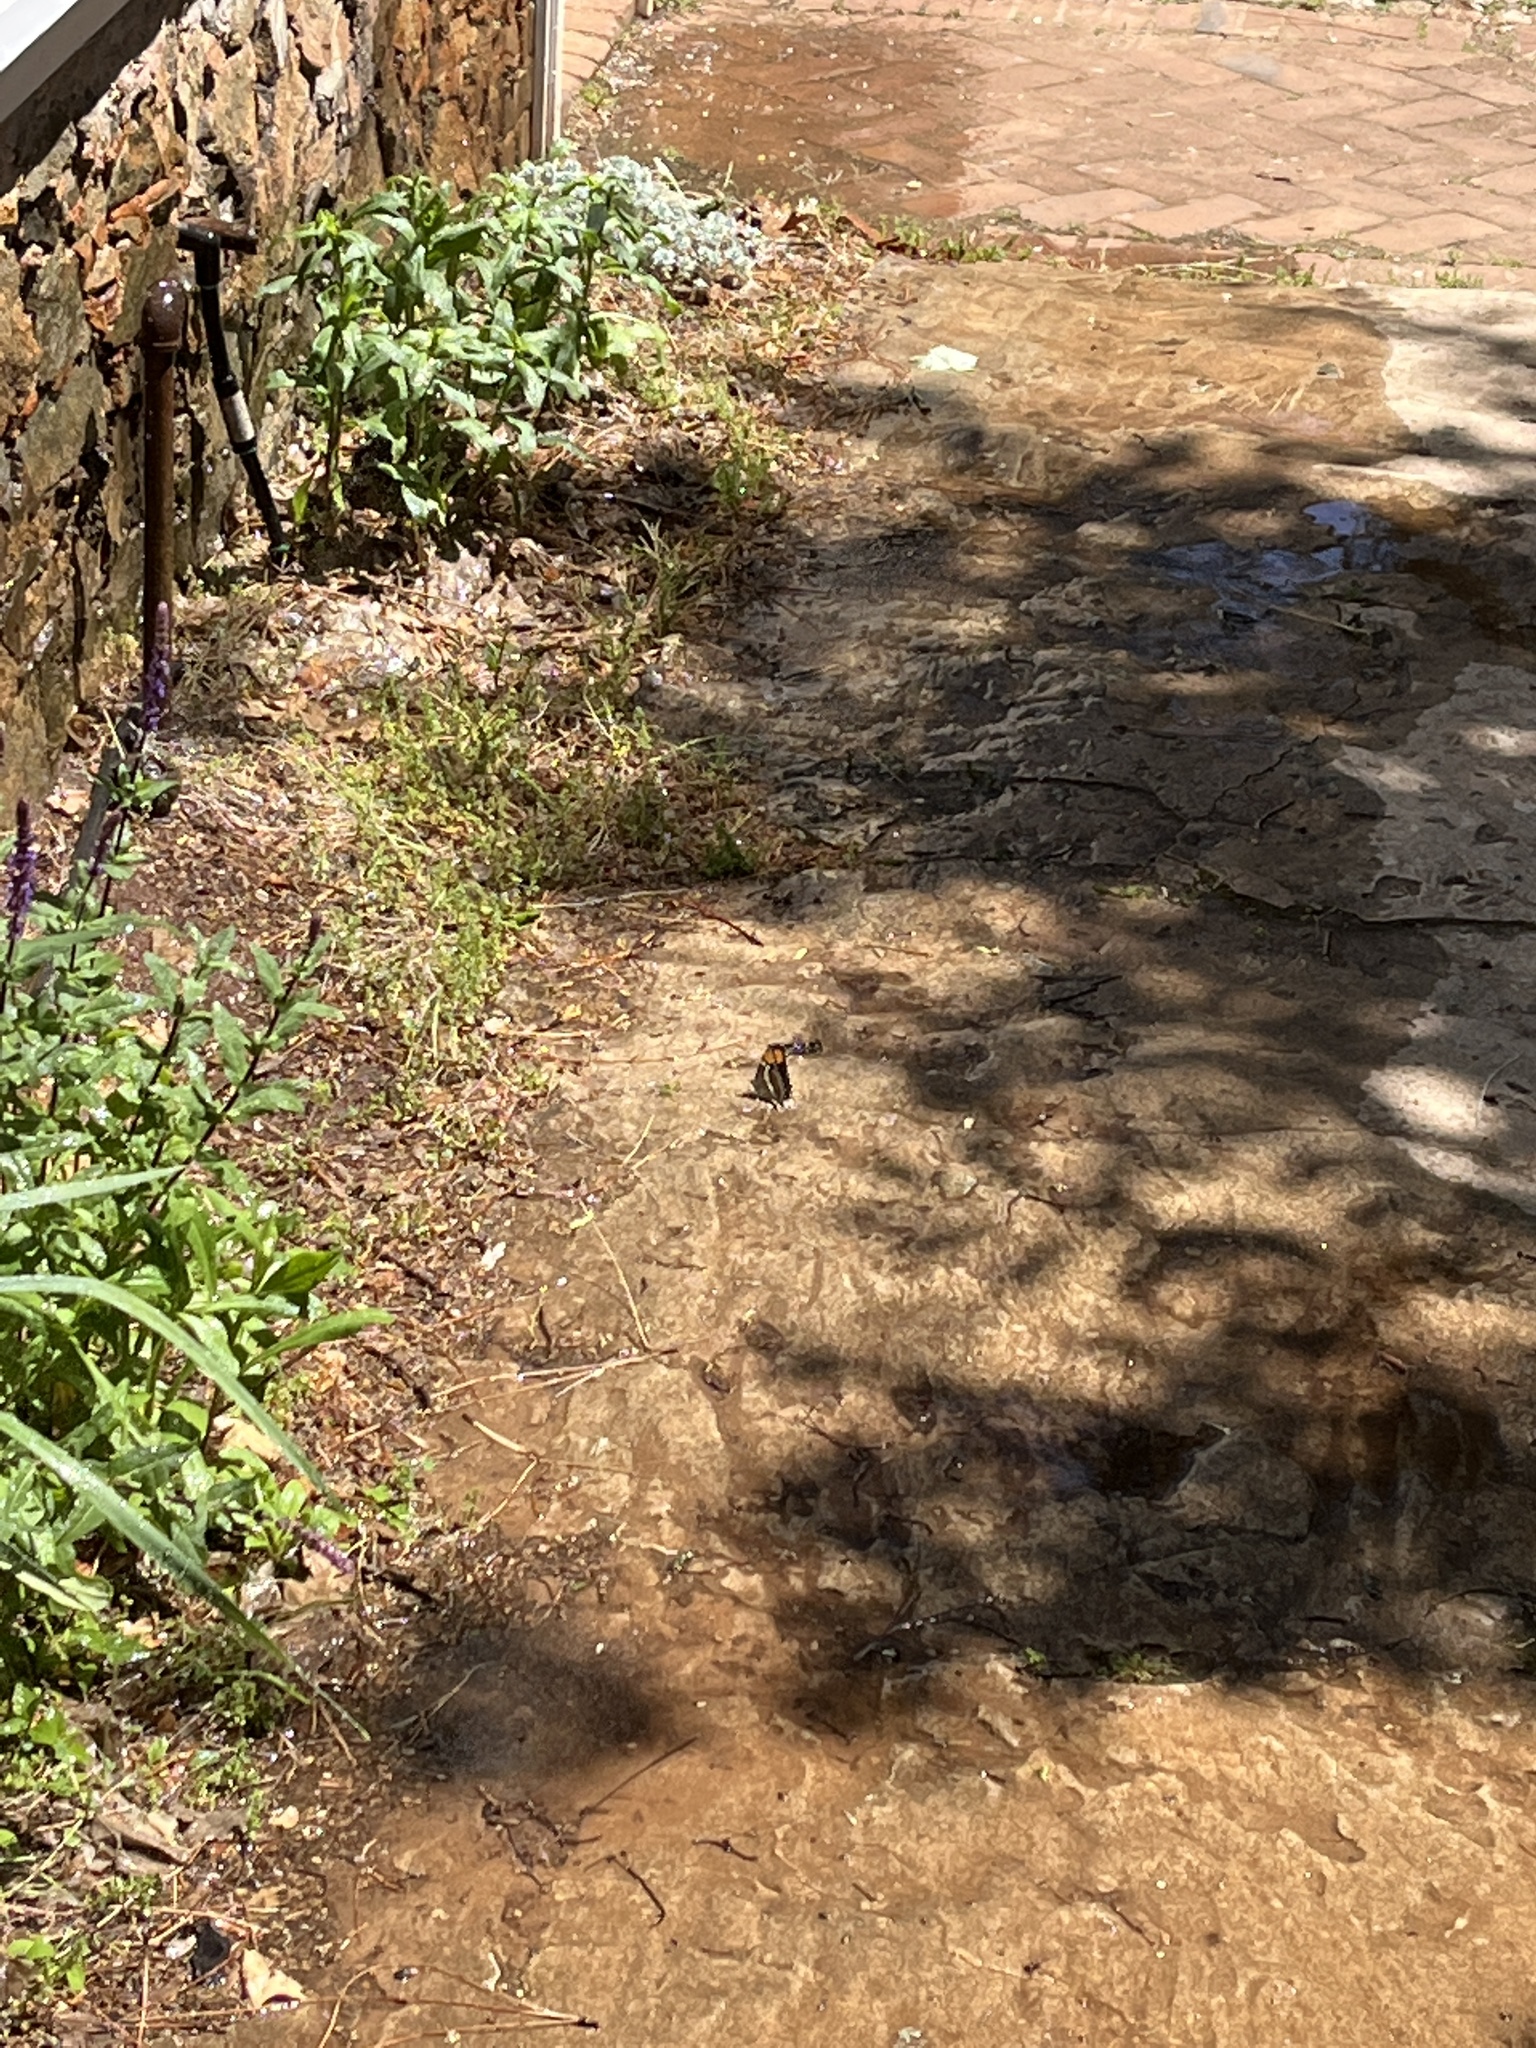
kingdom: Animalia
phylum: Arthropoda
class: Insecta
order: Lepidoptera
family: Nymphalidae
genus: Limenitis
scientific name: Limenitis bredowii
